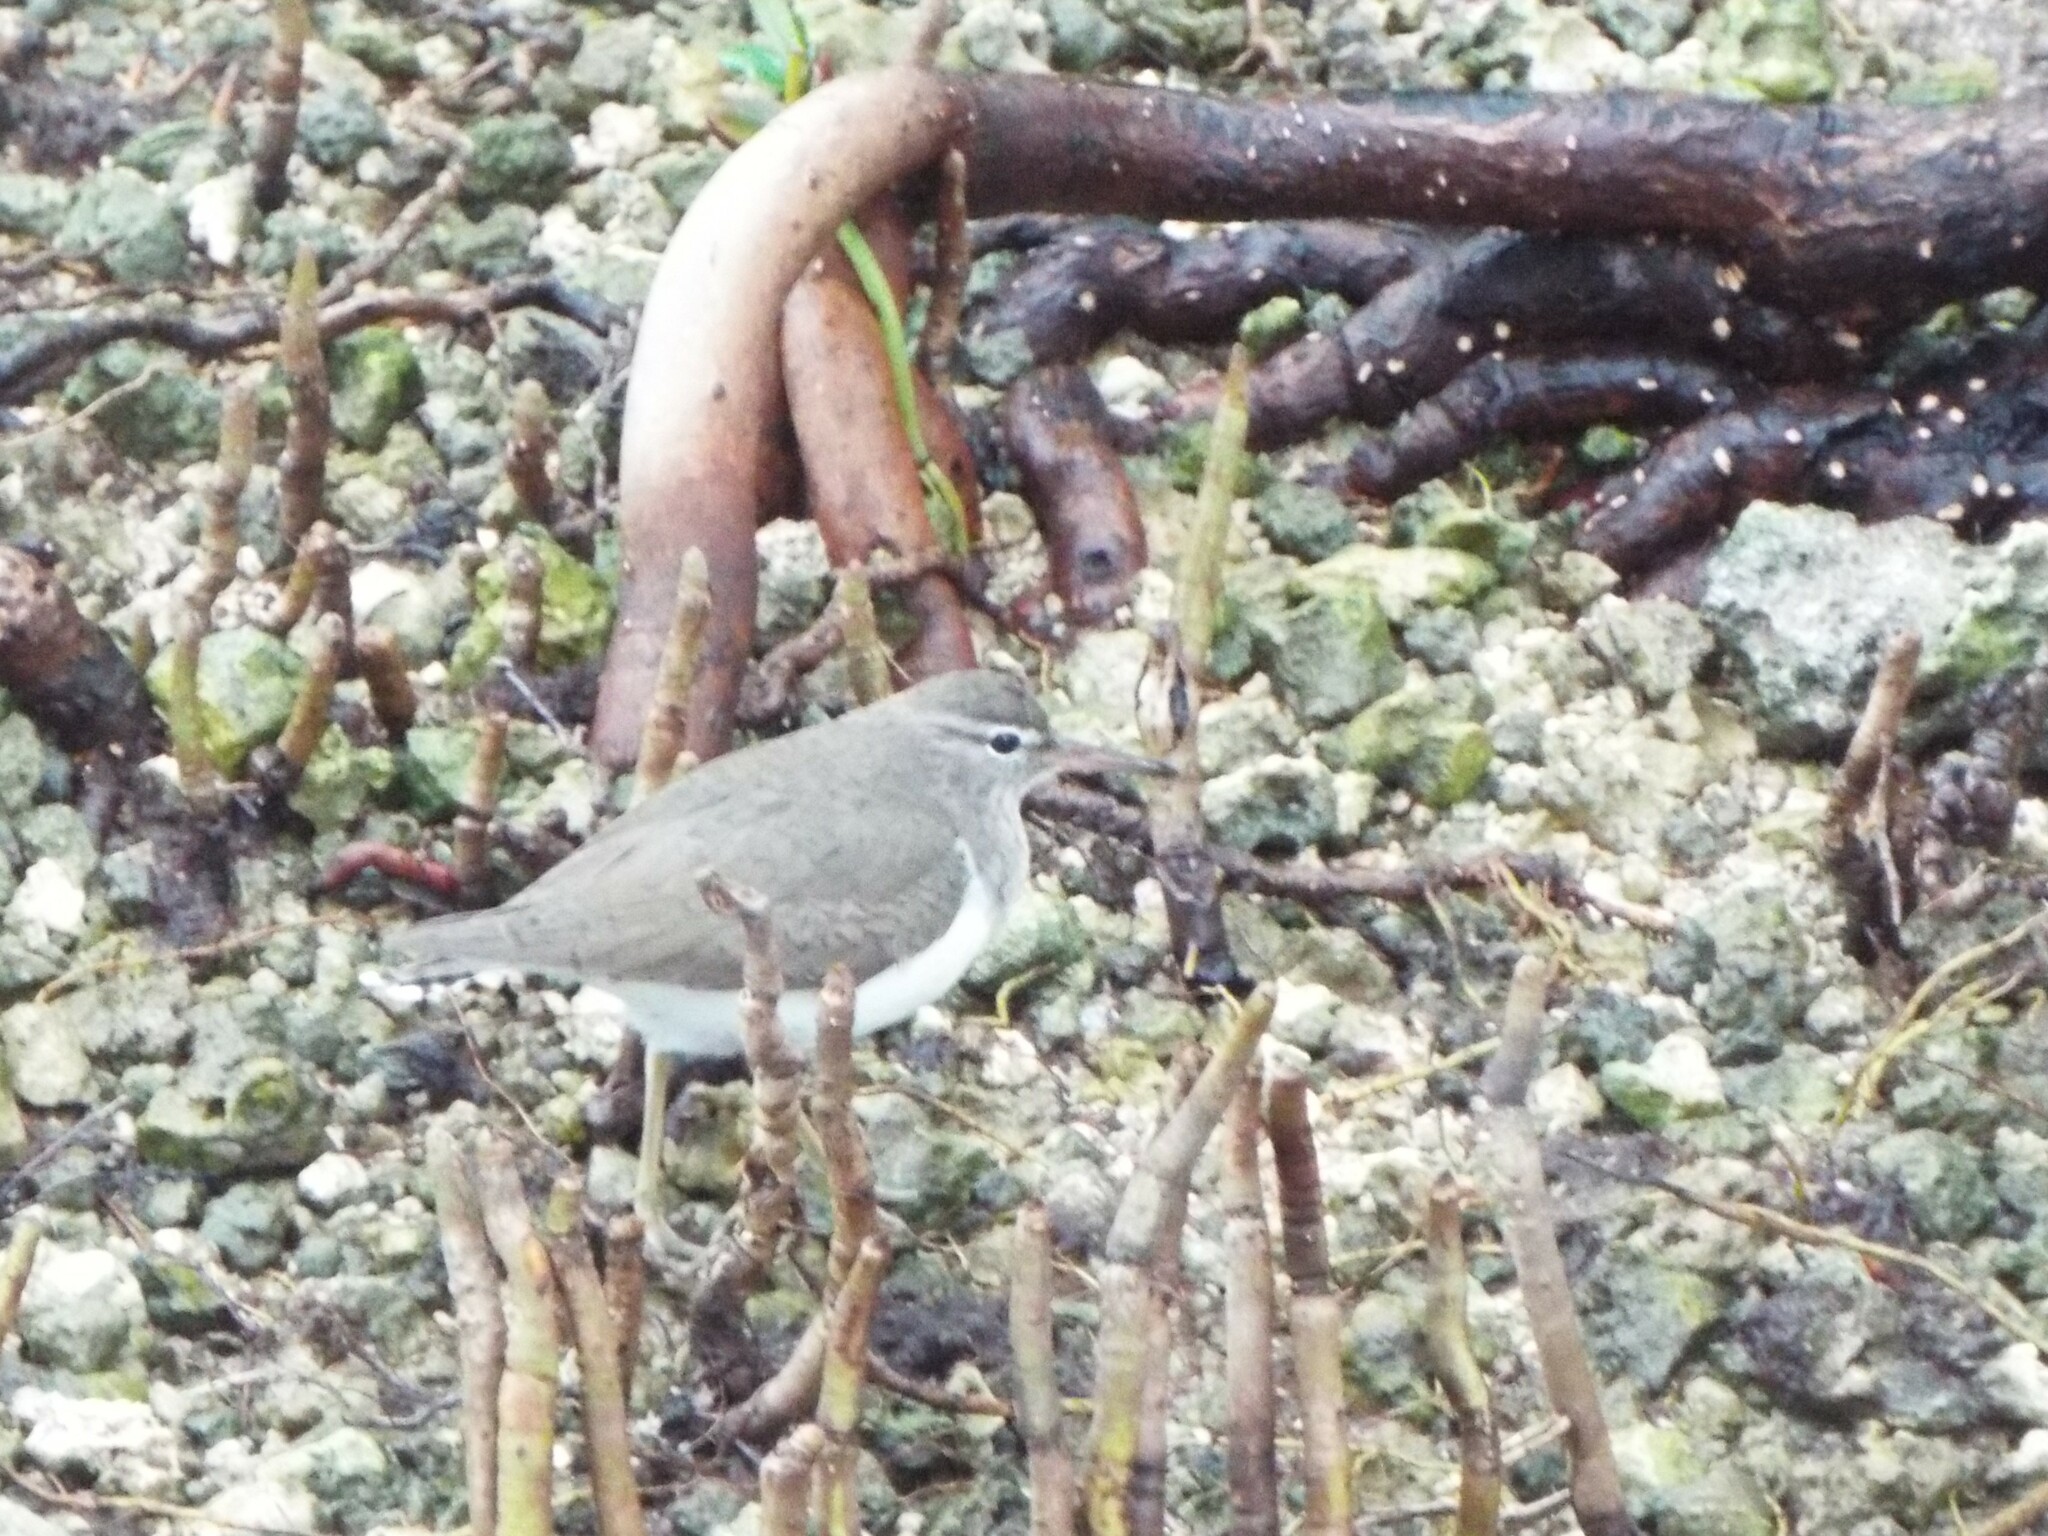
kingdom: Animalia
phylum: Chordata
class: Aves
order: Charadriiformes
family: Scolopacidae
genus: Actitis
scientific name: Actitis macularius
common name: Spotted sandpiper
